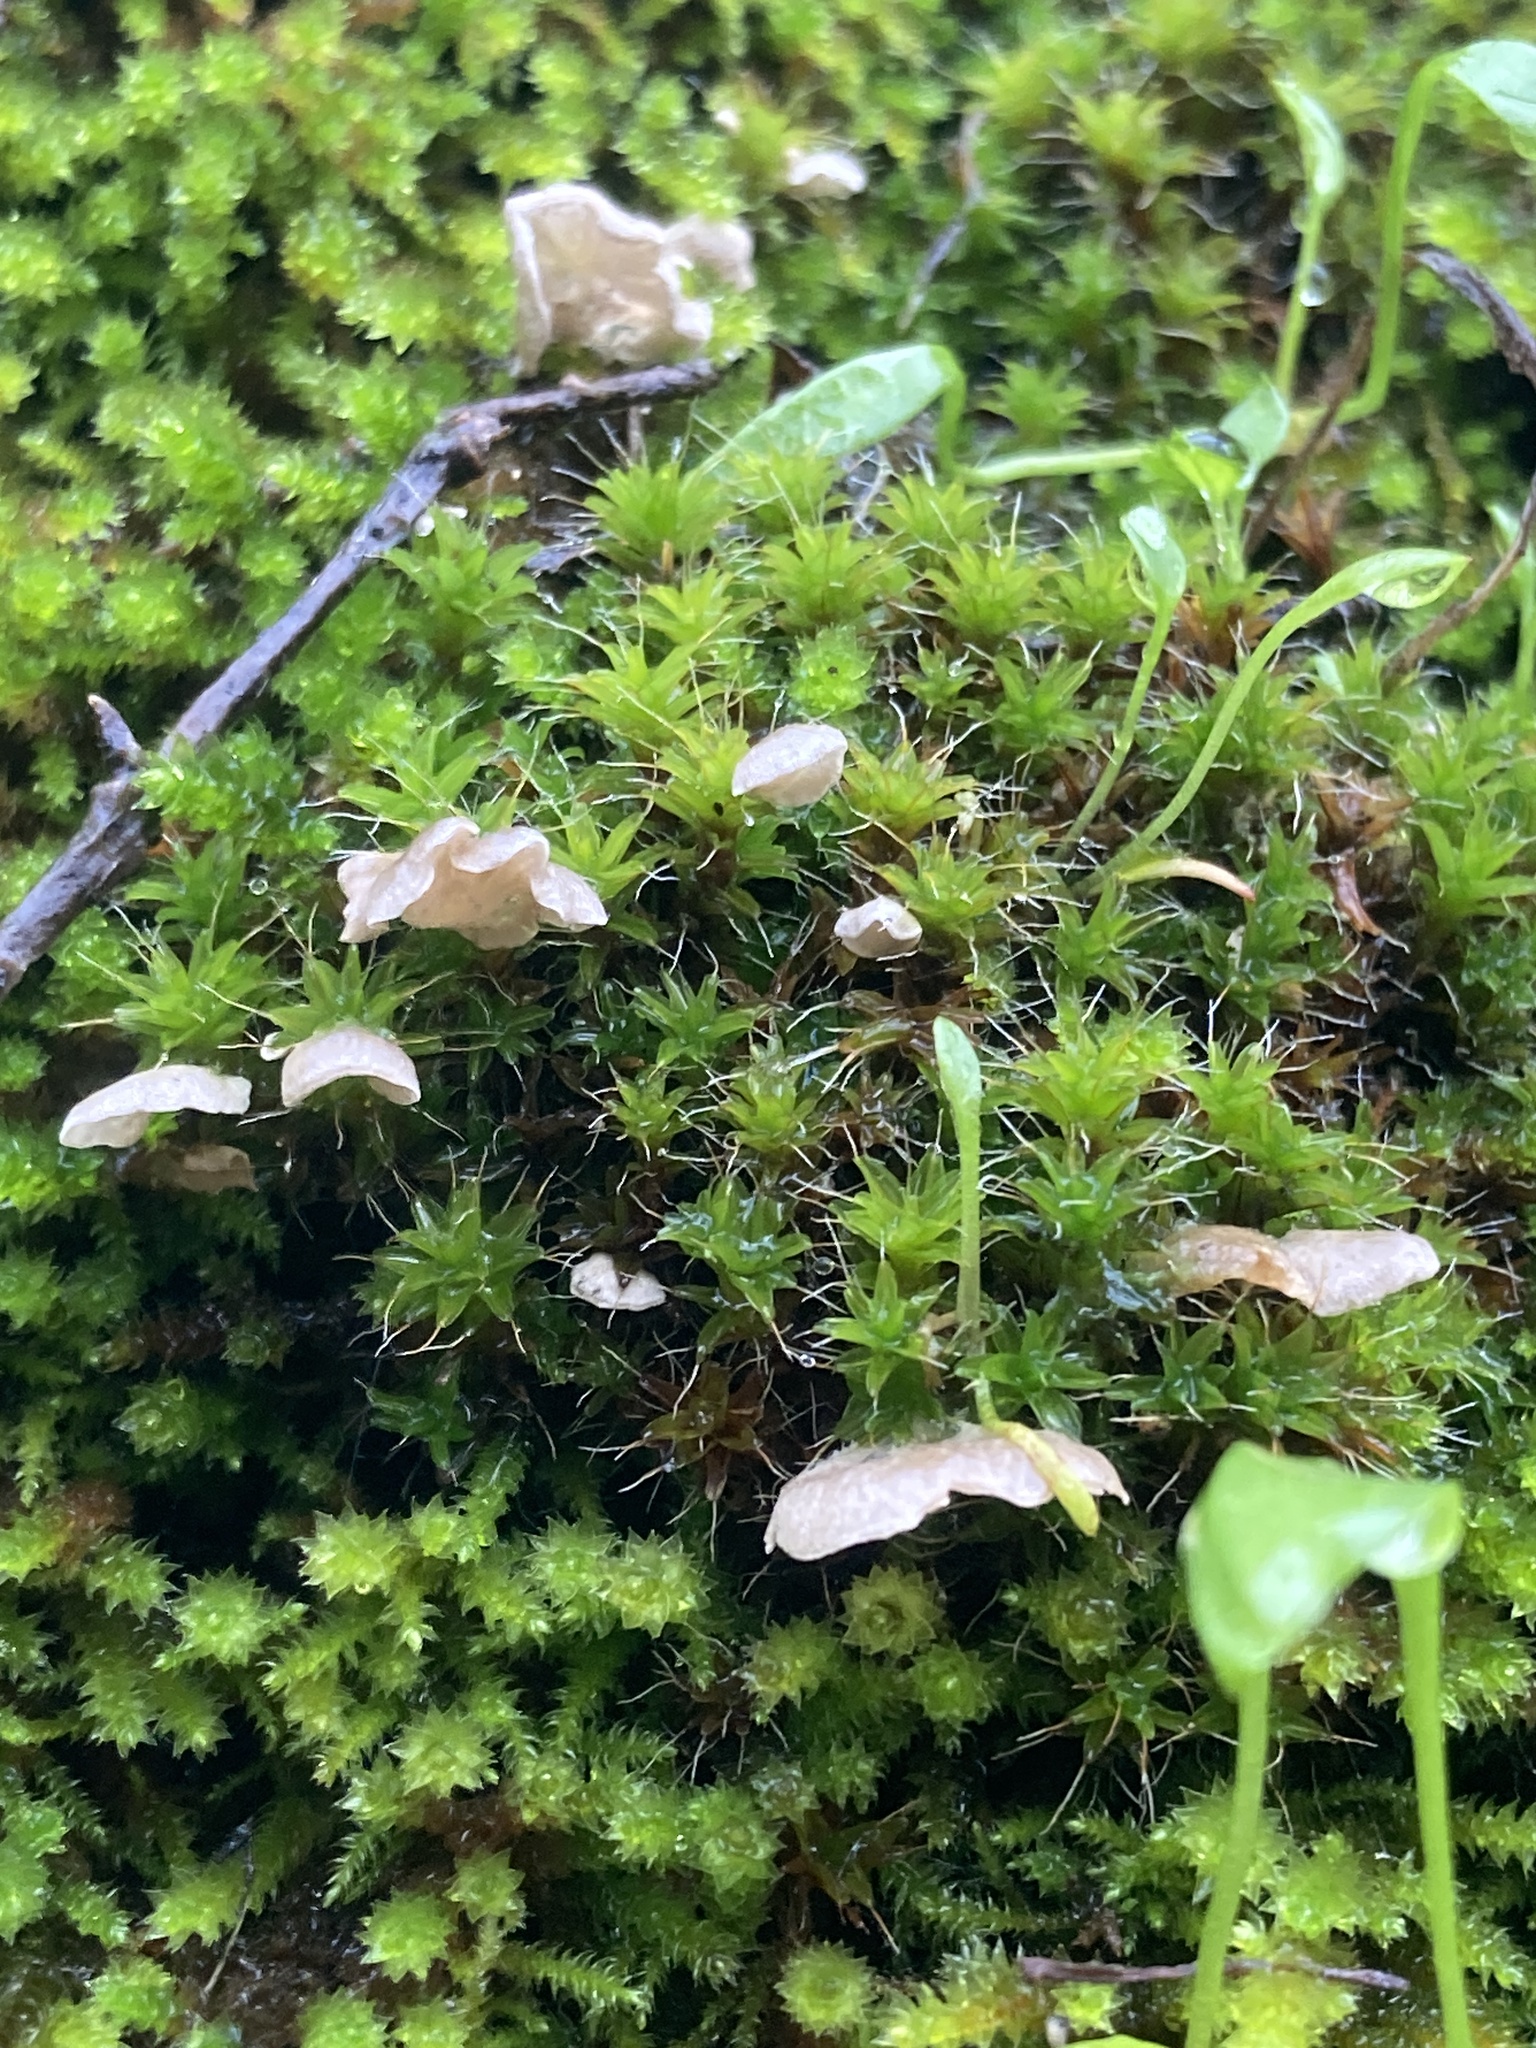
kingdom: Fungi
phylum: Basidiomycota
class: Agaricomycetes
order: Agaricales
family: Hygrophoraceae
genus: Arrhenia
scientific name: Arrhenia retiruga
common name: Small moss oysterling
